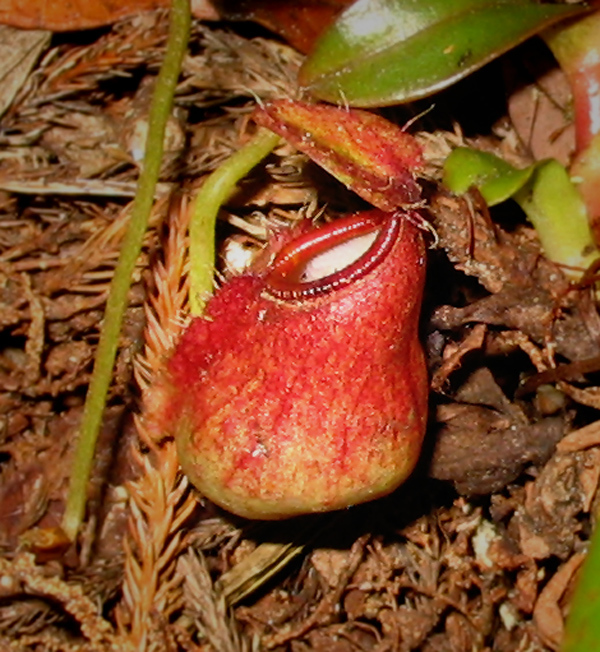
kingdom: Plantae
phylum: Tracheophyta
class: Magnoliopsida
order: Caryophyllales
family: Nepenthaceae
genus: Nepenthes
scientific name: Nepenthes tentaculata
